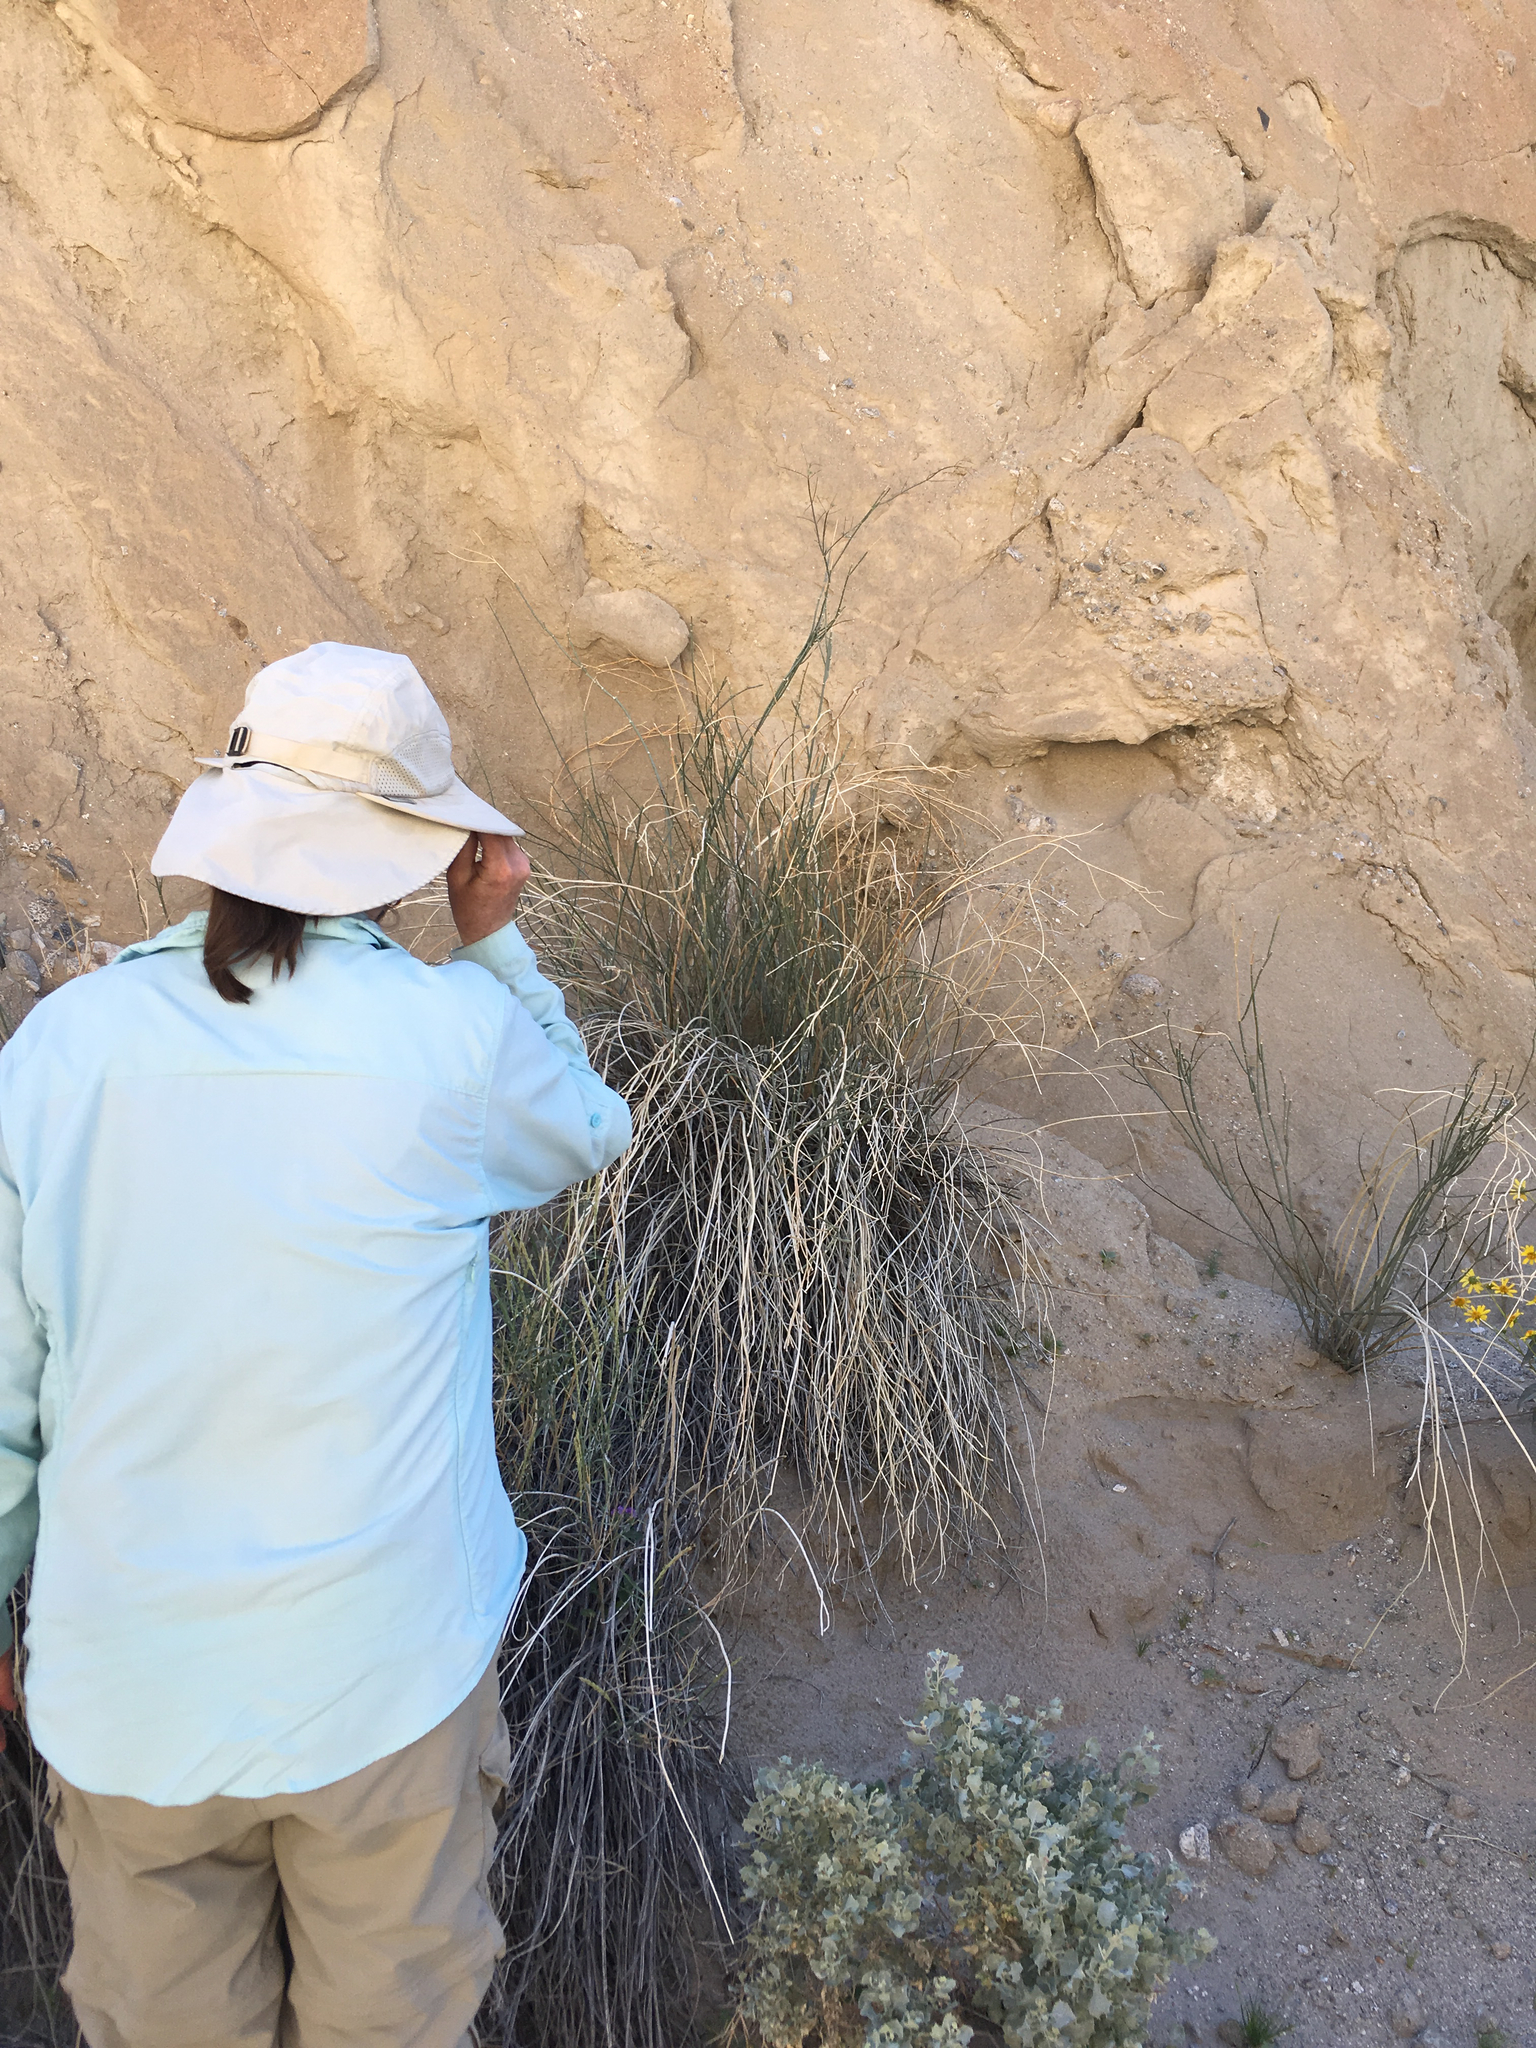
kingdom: Plantae
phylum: Tracheophyta
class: Magnoliopsida
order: Gentianales
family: Apocynaceae
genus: Asclepias
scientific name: Asclepias subulata
